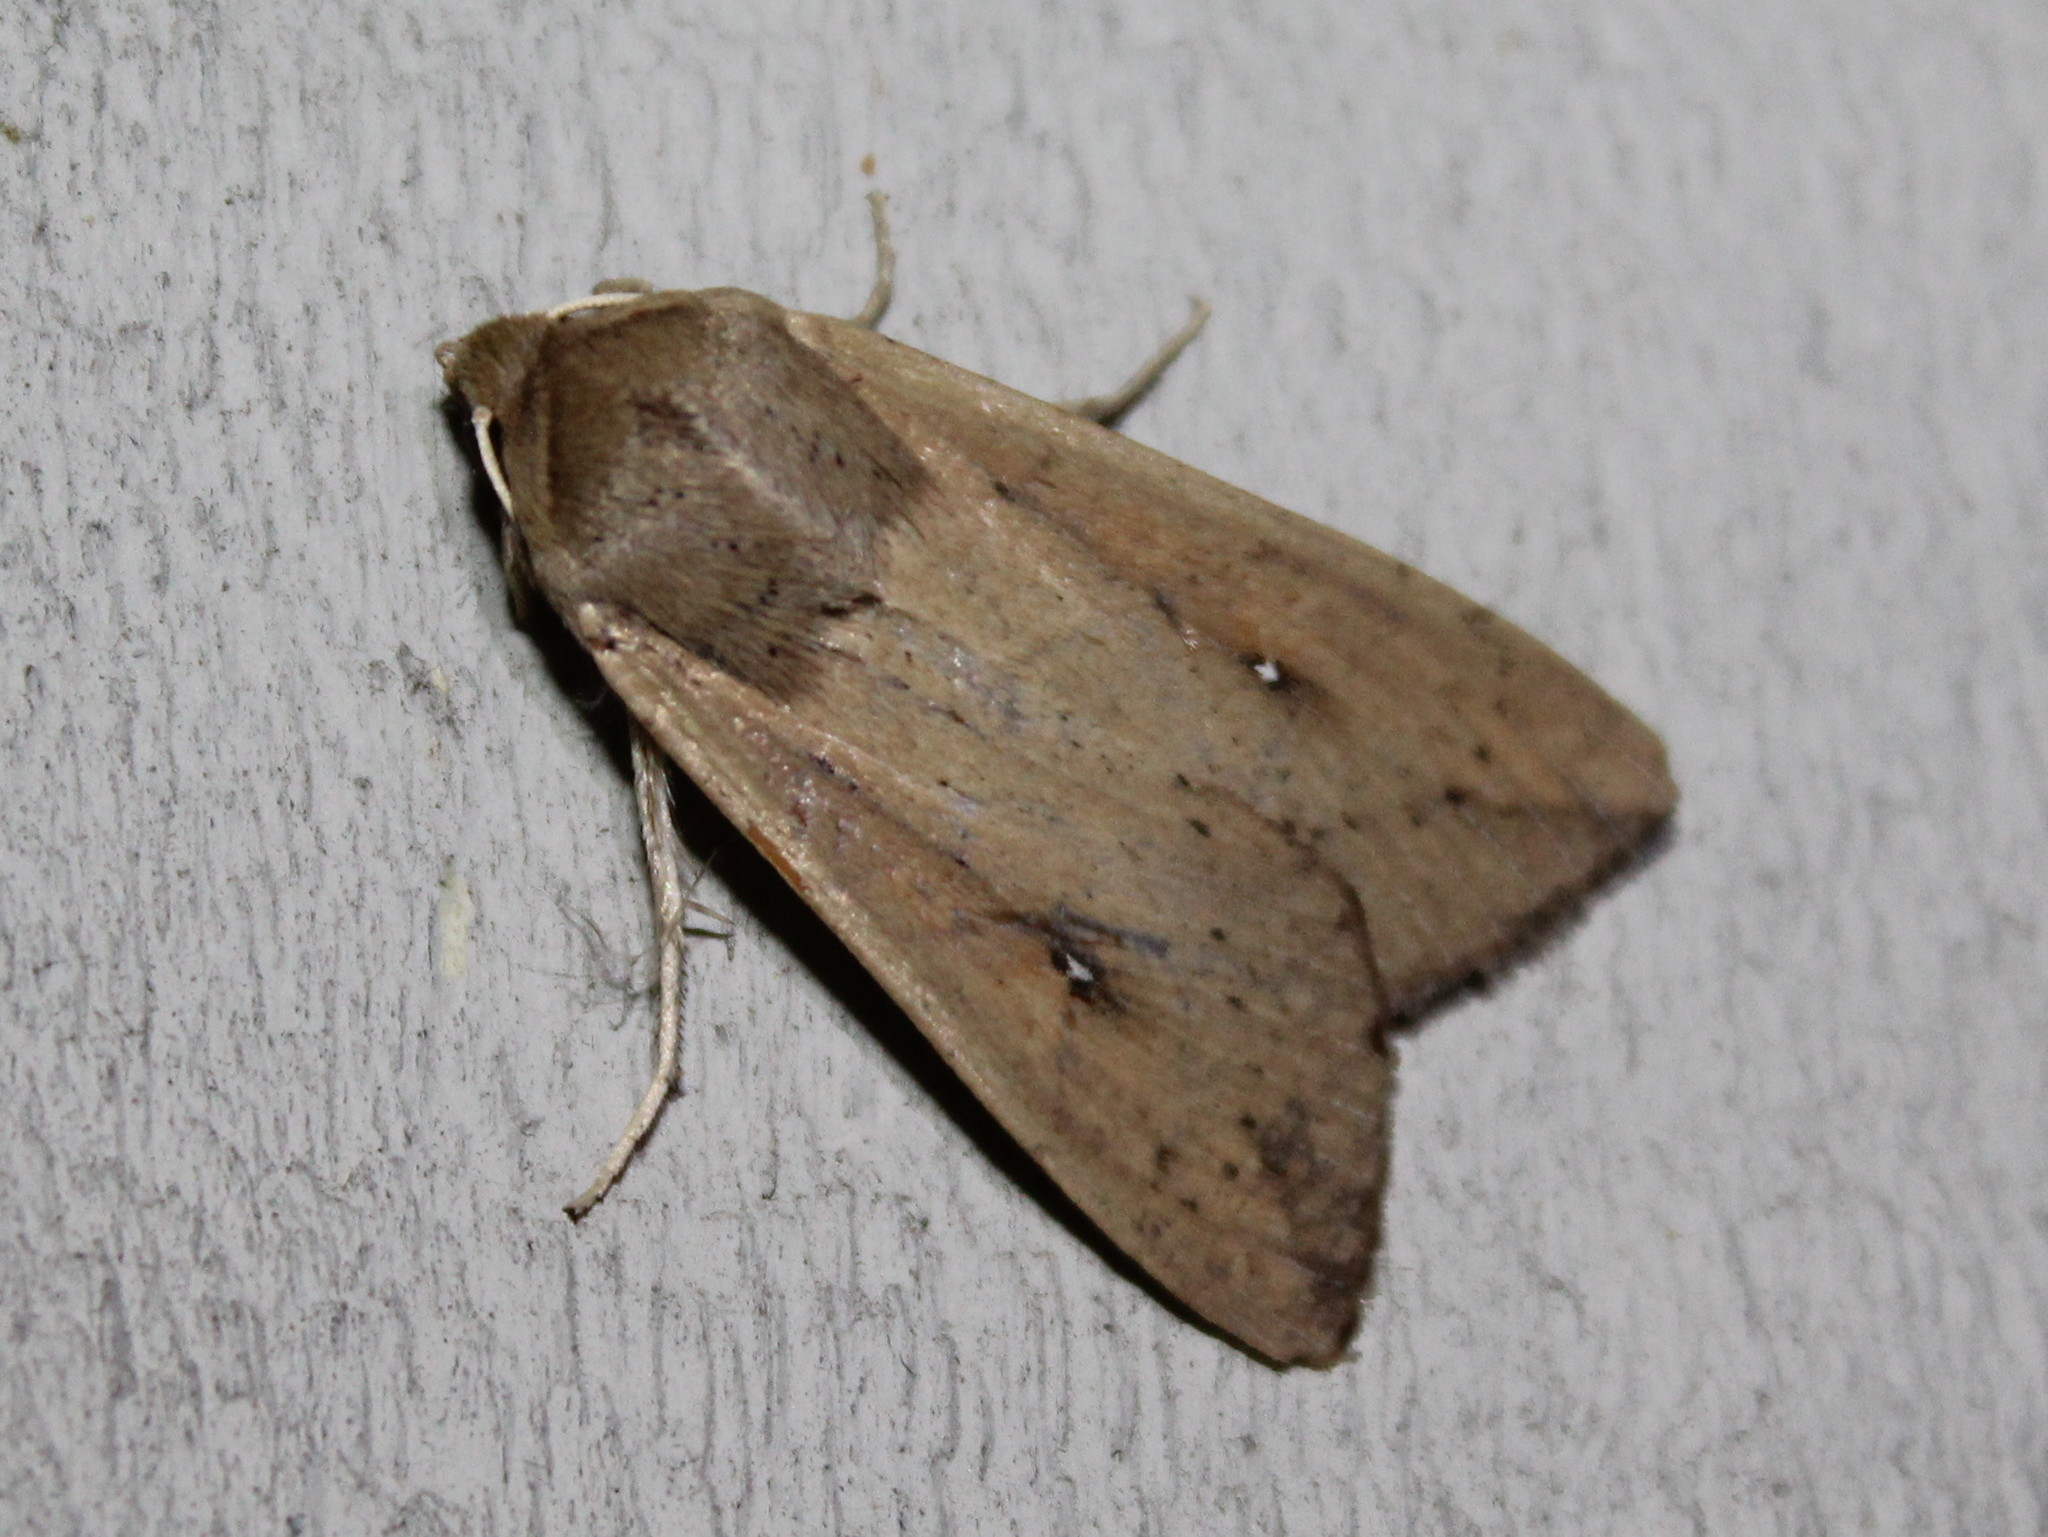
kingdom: Animalia
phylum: Arthropoda
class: Insecta
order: Lepidoptera
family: Noctuidae
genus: Mythimna
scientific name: Mythimna unipuncta
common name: White-speck
